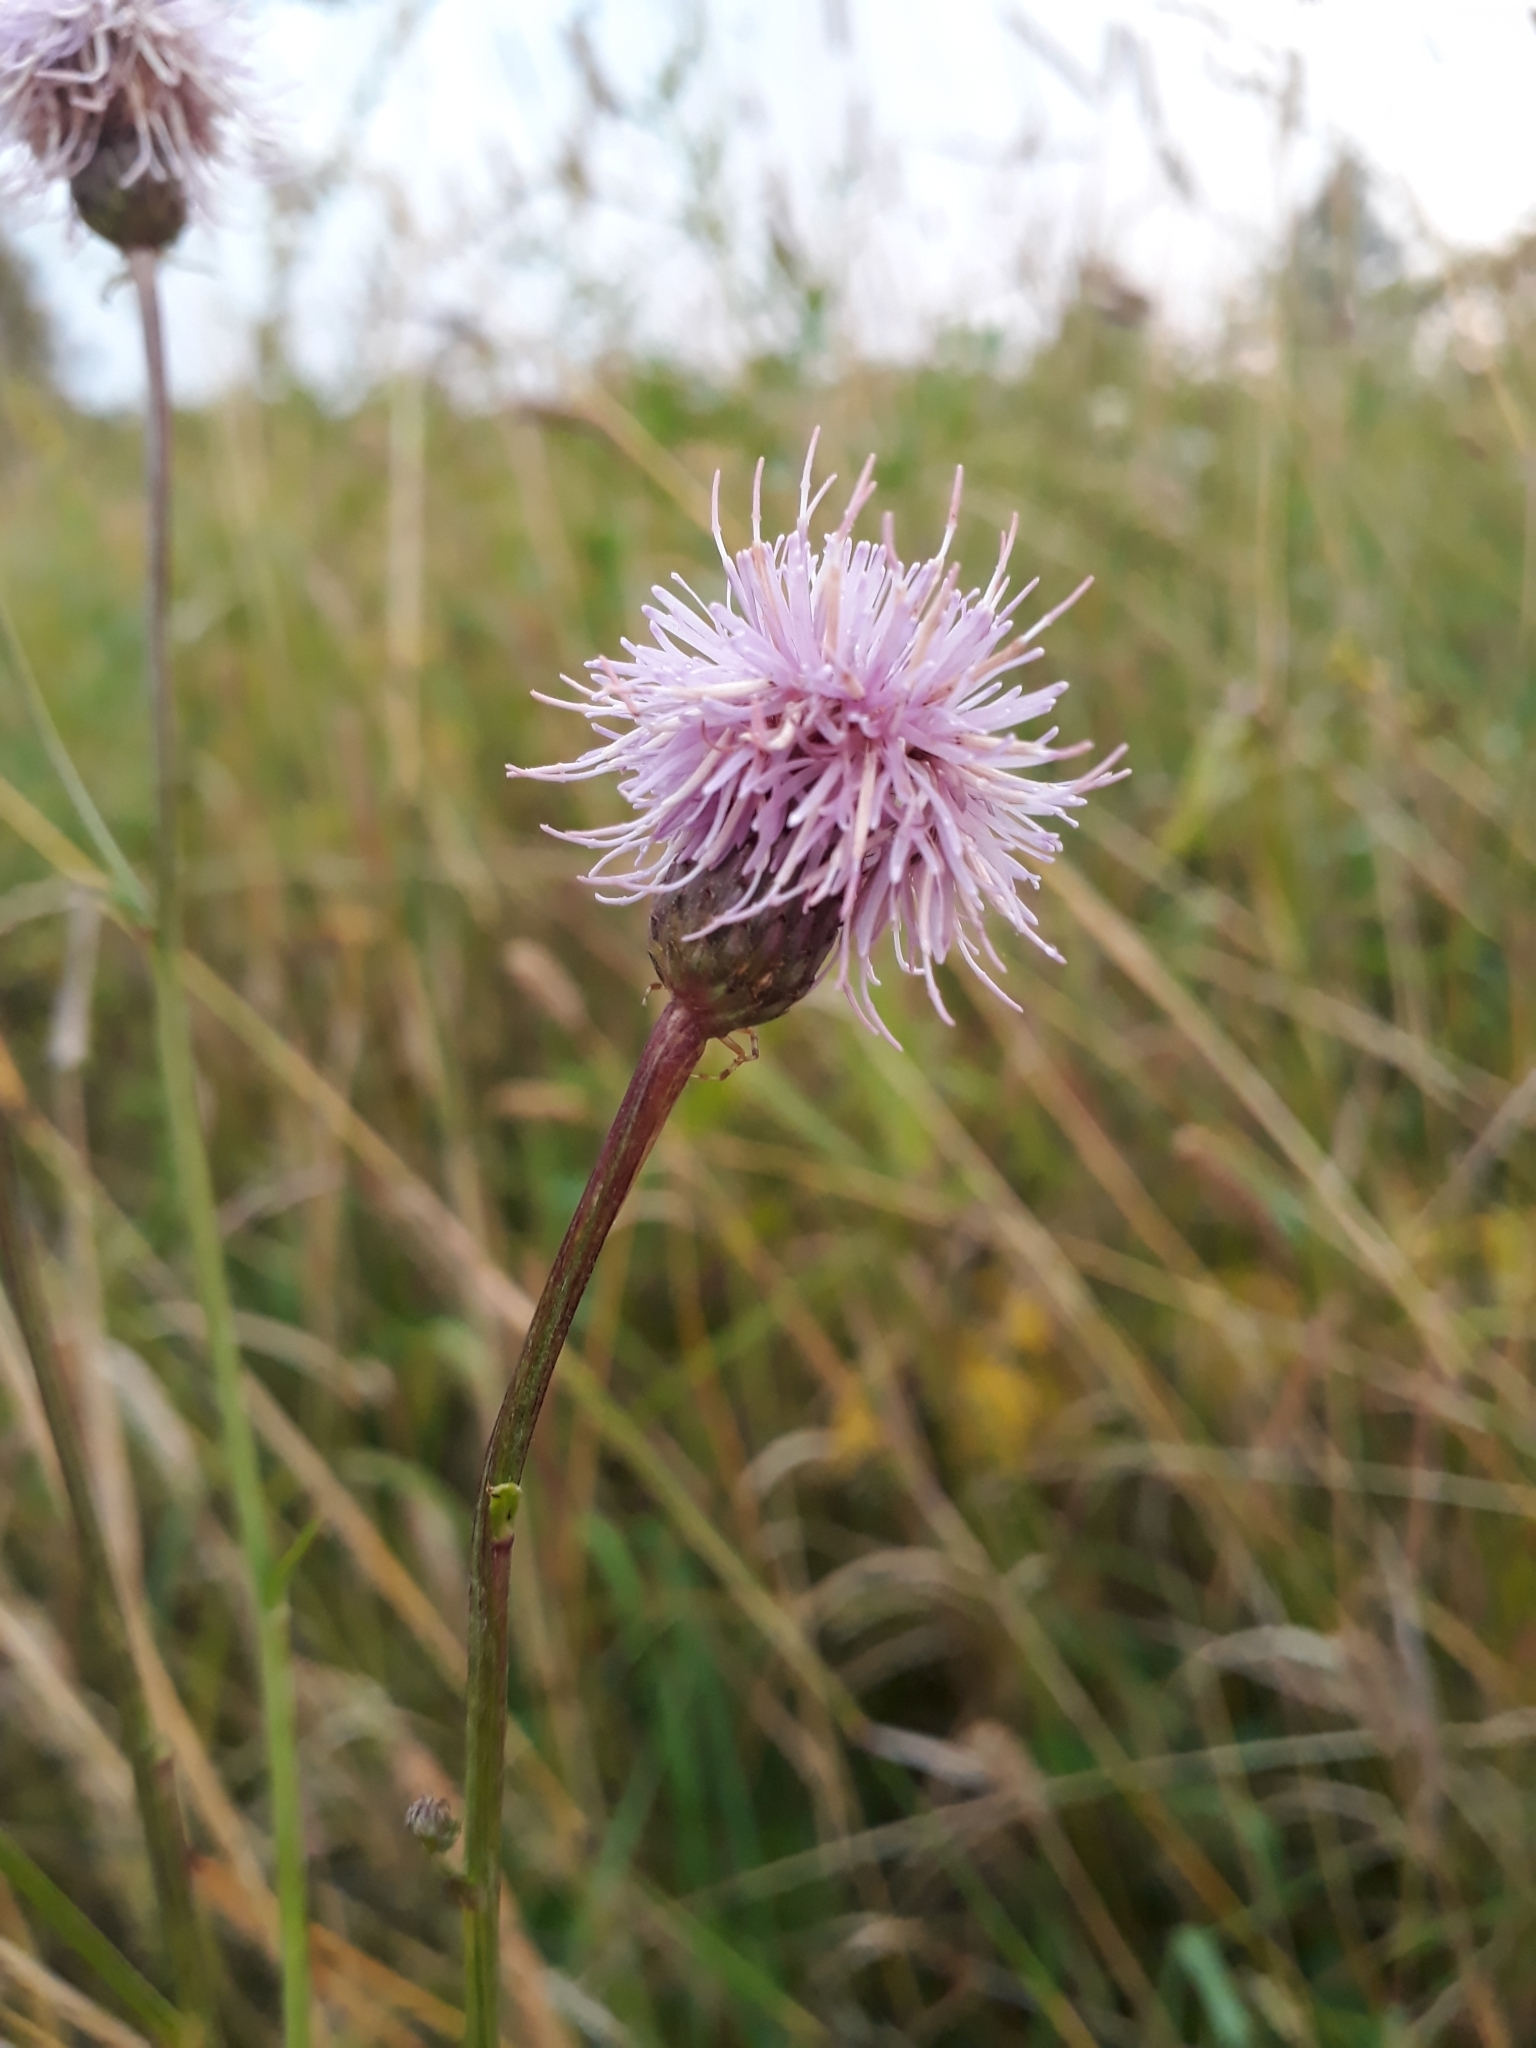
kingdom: Plantae
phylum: Tracheophyta
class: Magnoliopsida
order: Asterales
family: Asteraceae
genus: Cirsium
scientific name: Cirsium arvense
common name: Creeping thistle
